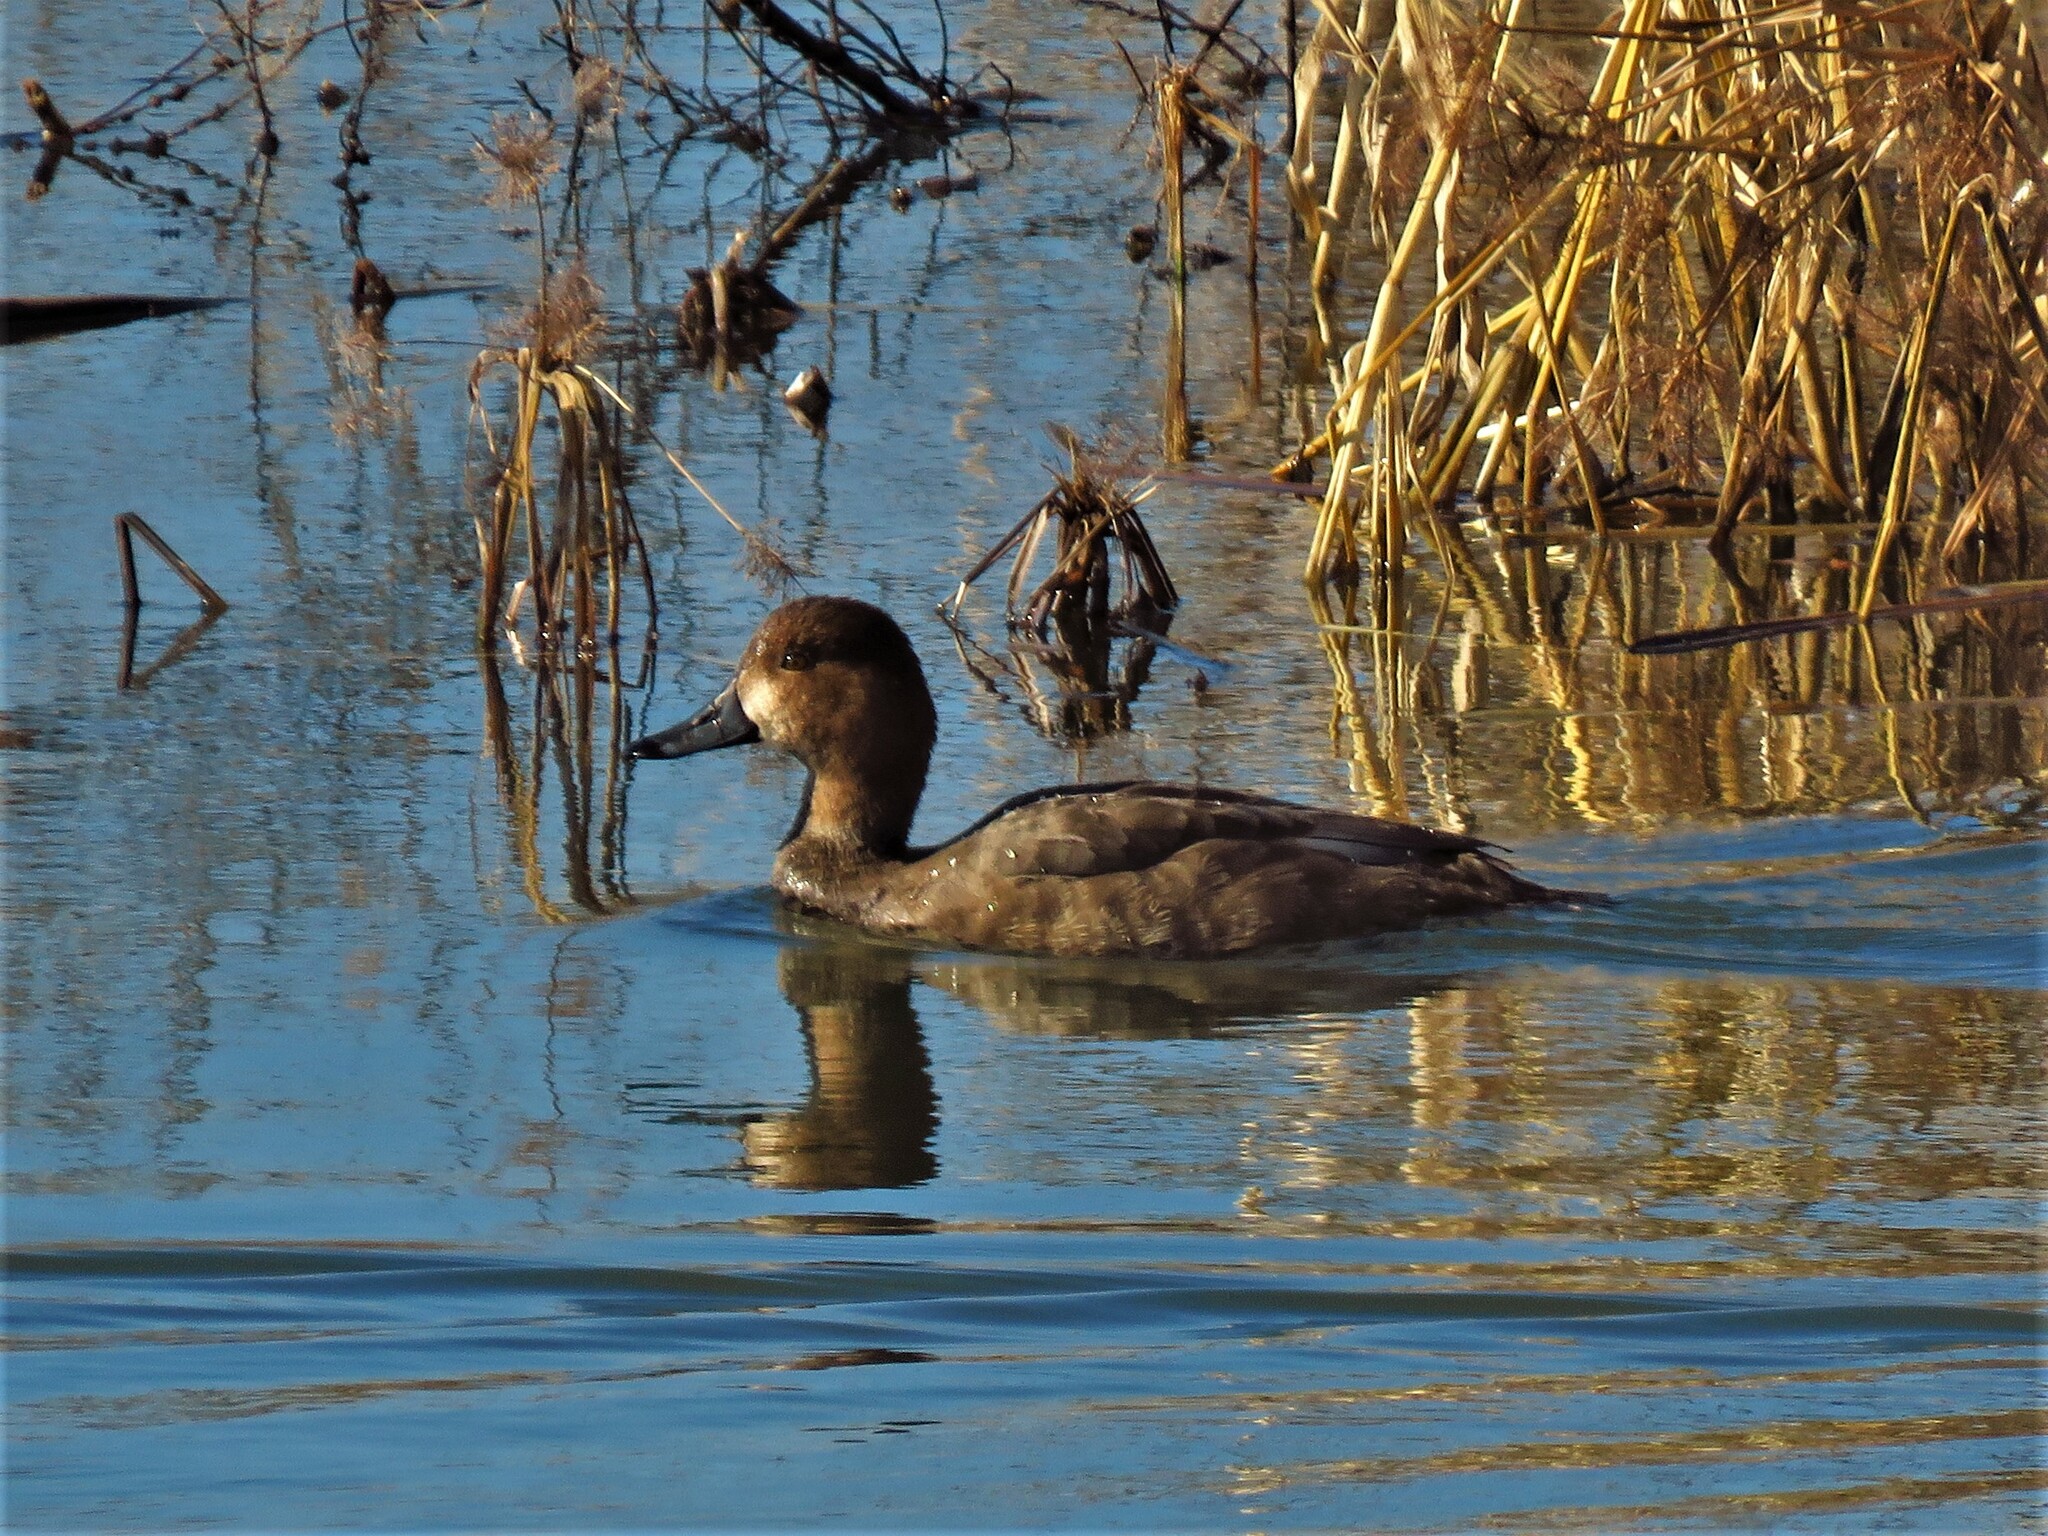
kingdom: Animalia
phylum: Chordata
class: Aves
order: Anseriformes
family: Anatidae
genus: Aythya
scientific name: Aythya americana
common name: Redhead
